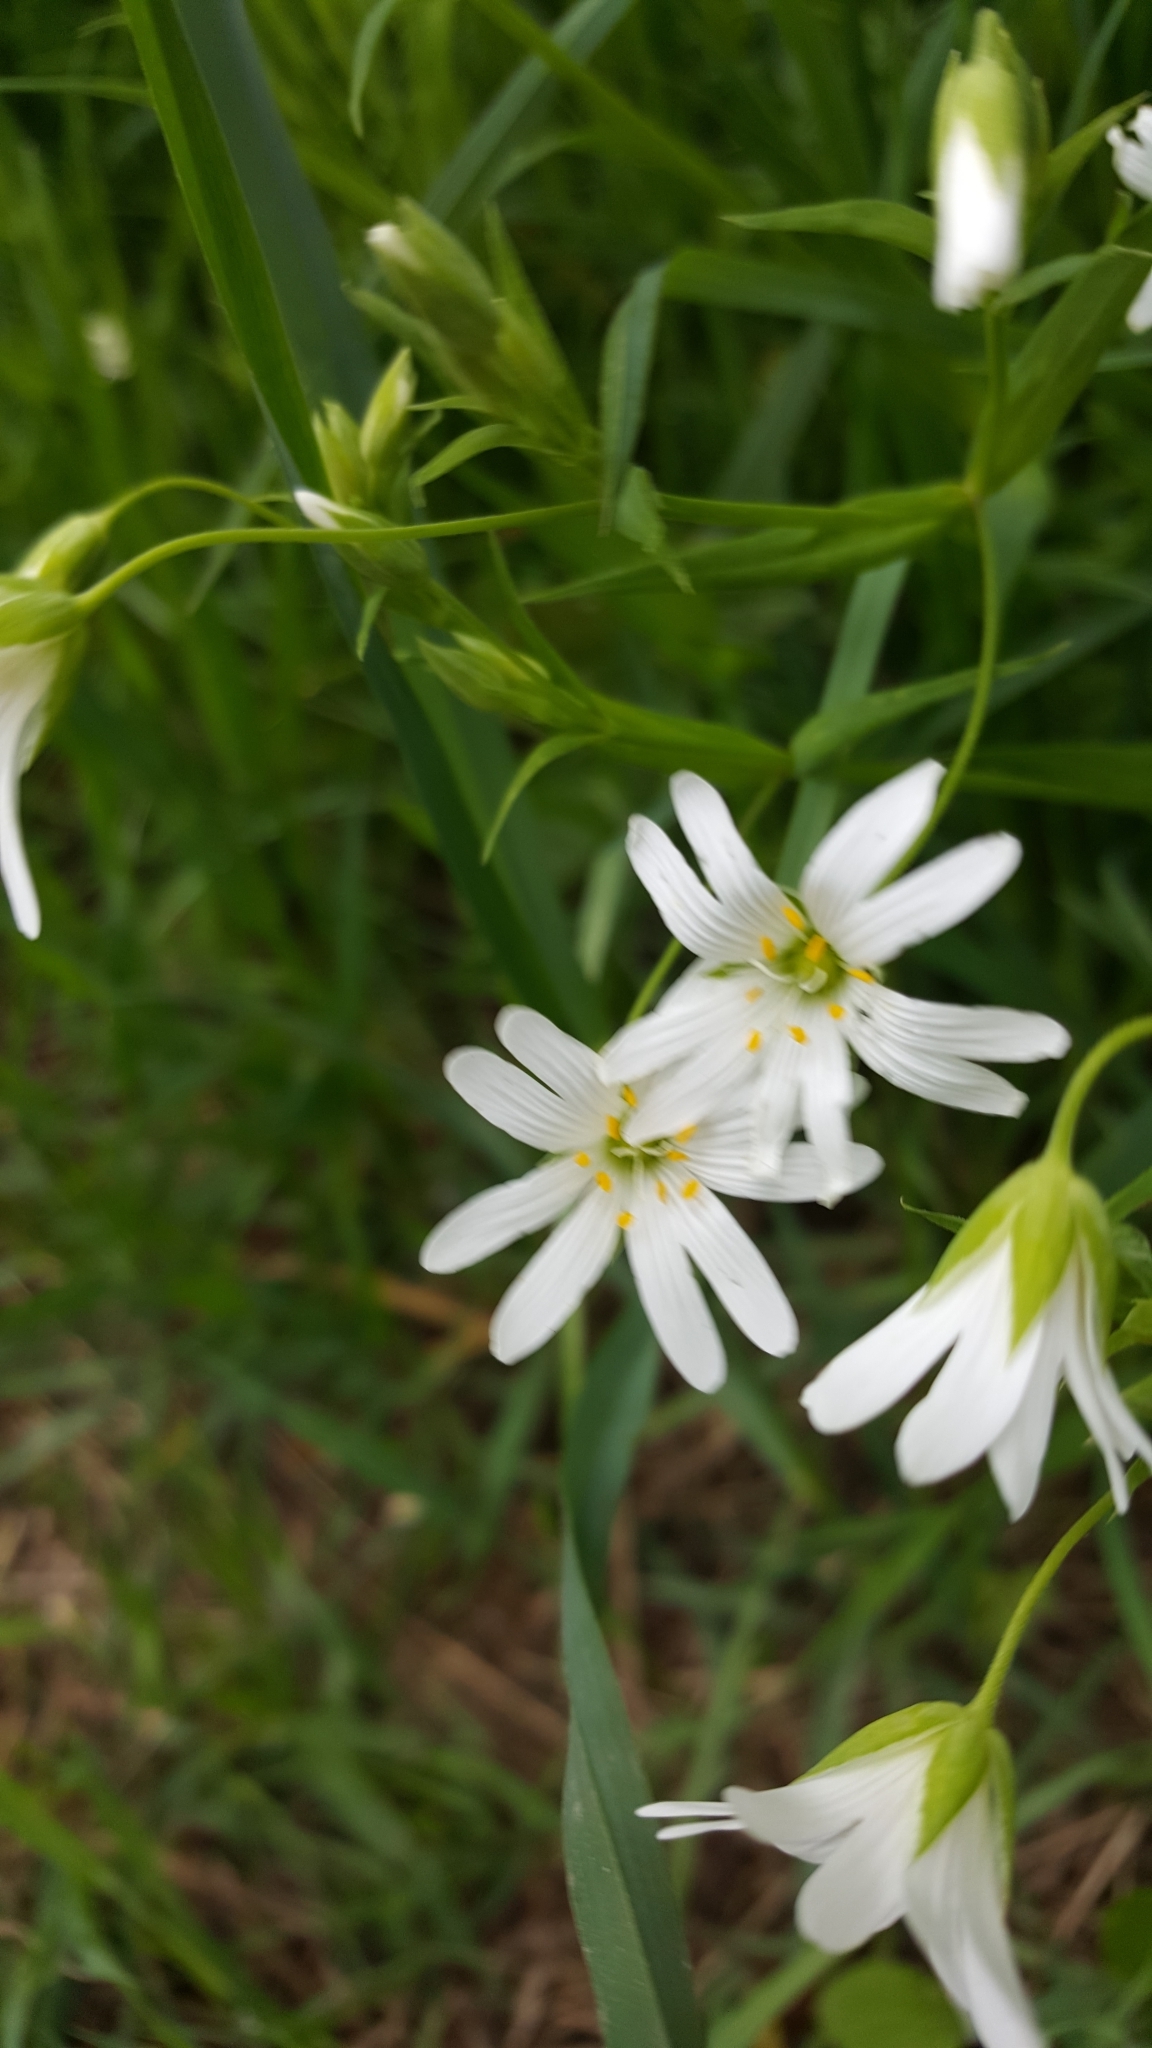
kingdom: Plantae
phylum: Tracheophyta
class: Magnoliopsida
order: Caryophyllales
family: Caryophyllaceae
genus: Rabelera
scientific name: Rabelera holostea
